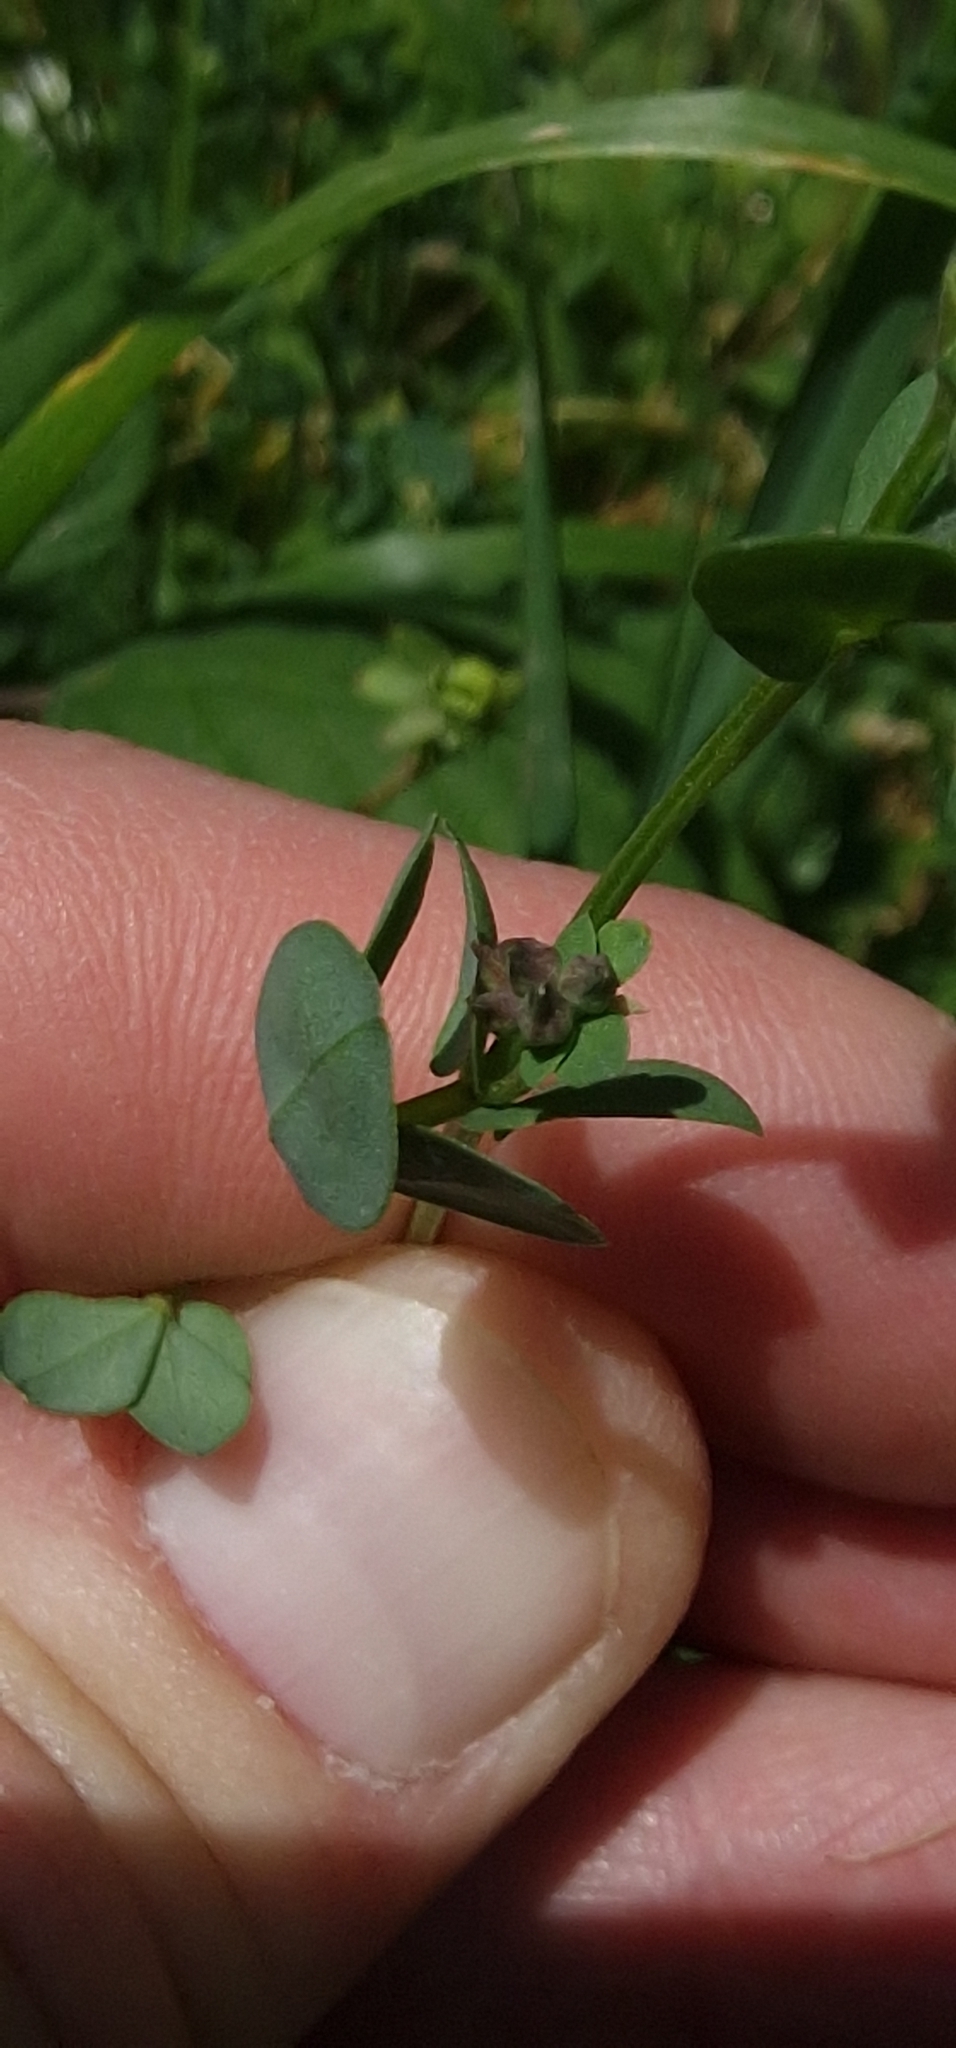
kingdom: Plantae
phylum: Tracheophyta
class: Magnoliopsida
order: Fabales
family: Fabaceae
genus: Lotus
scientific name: Lotus corniculatus
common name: Common bird's-foot-trefoil
